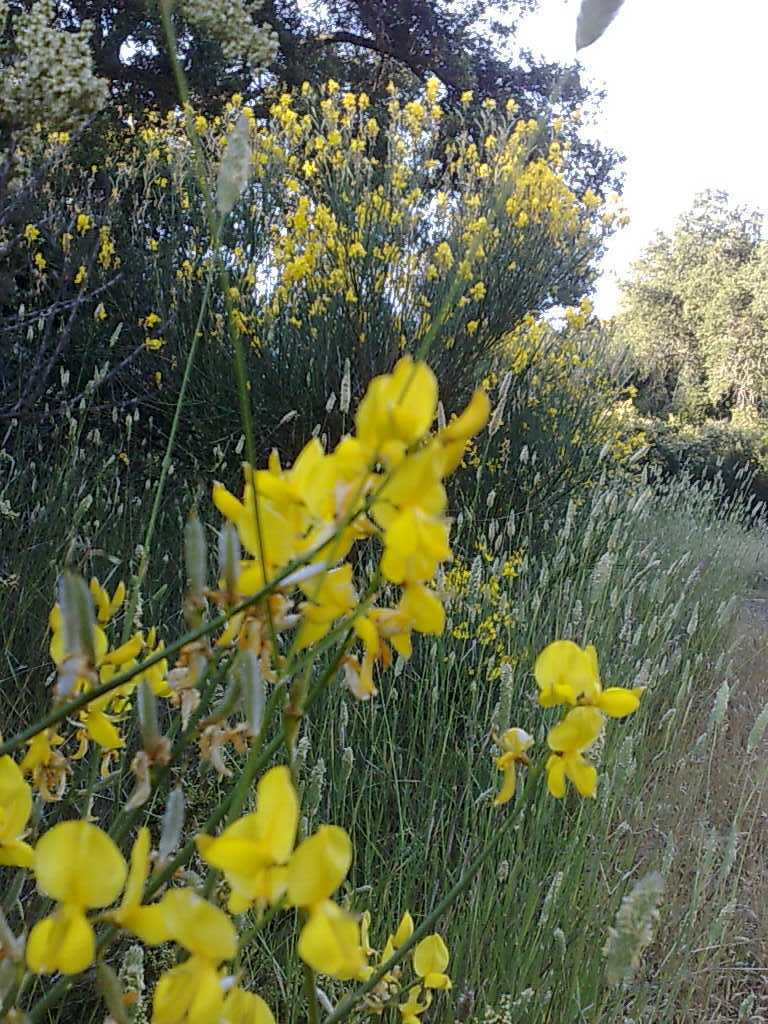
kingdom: Plantae
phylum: Tracheophyta
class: Magnoliopsida
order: Fabales
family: Fabaceae
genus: Spartium
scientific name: Spartium junceum
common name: Spanish broom
